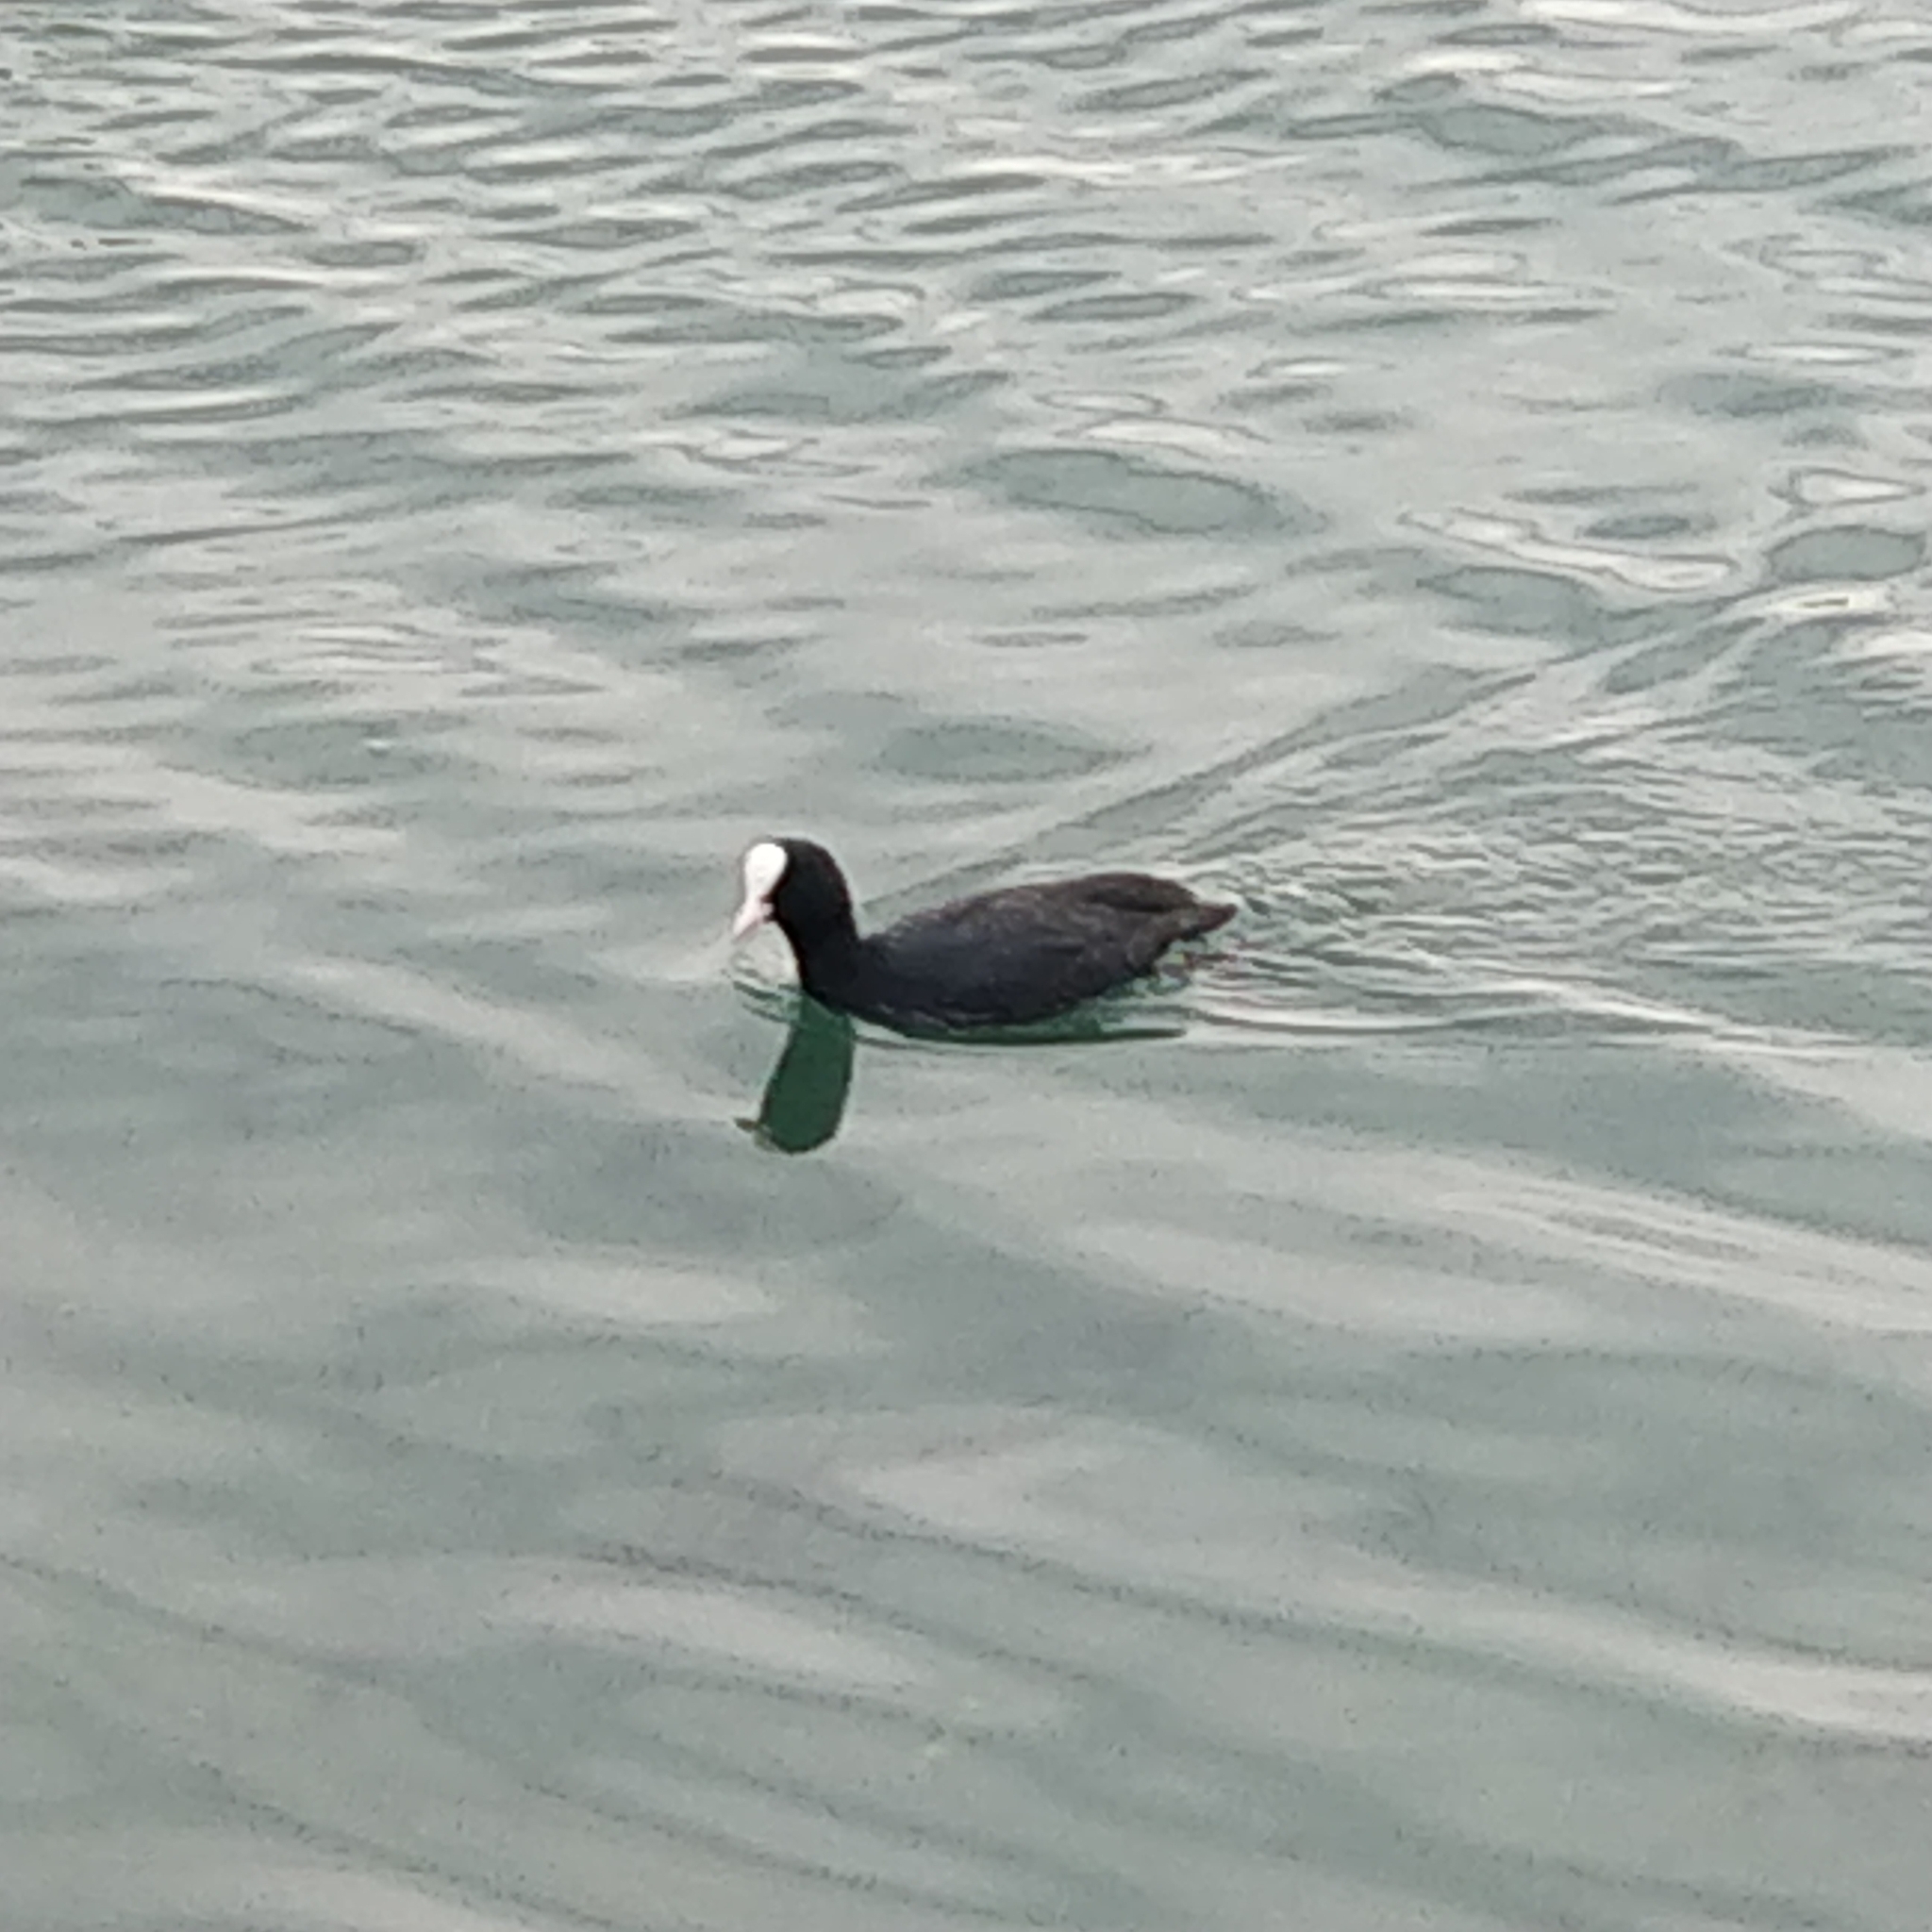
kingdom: Animalia
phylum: Chordata
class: Aves
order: Gruiformes
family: Rallidae
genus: Fulica
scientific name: Fulica atra
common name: Eurasian coot
